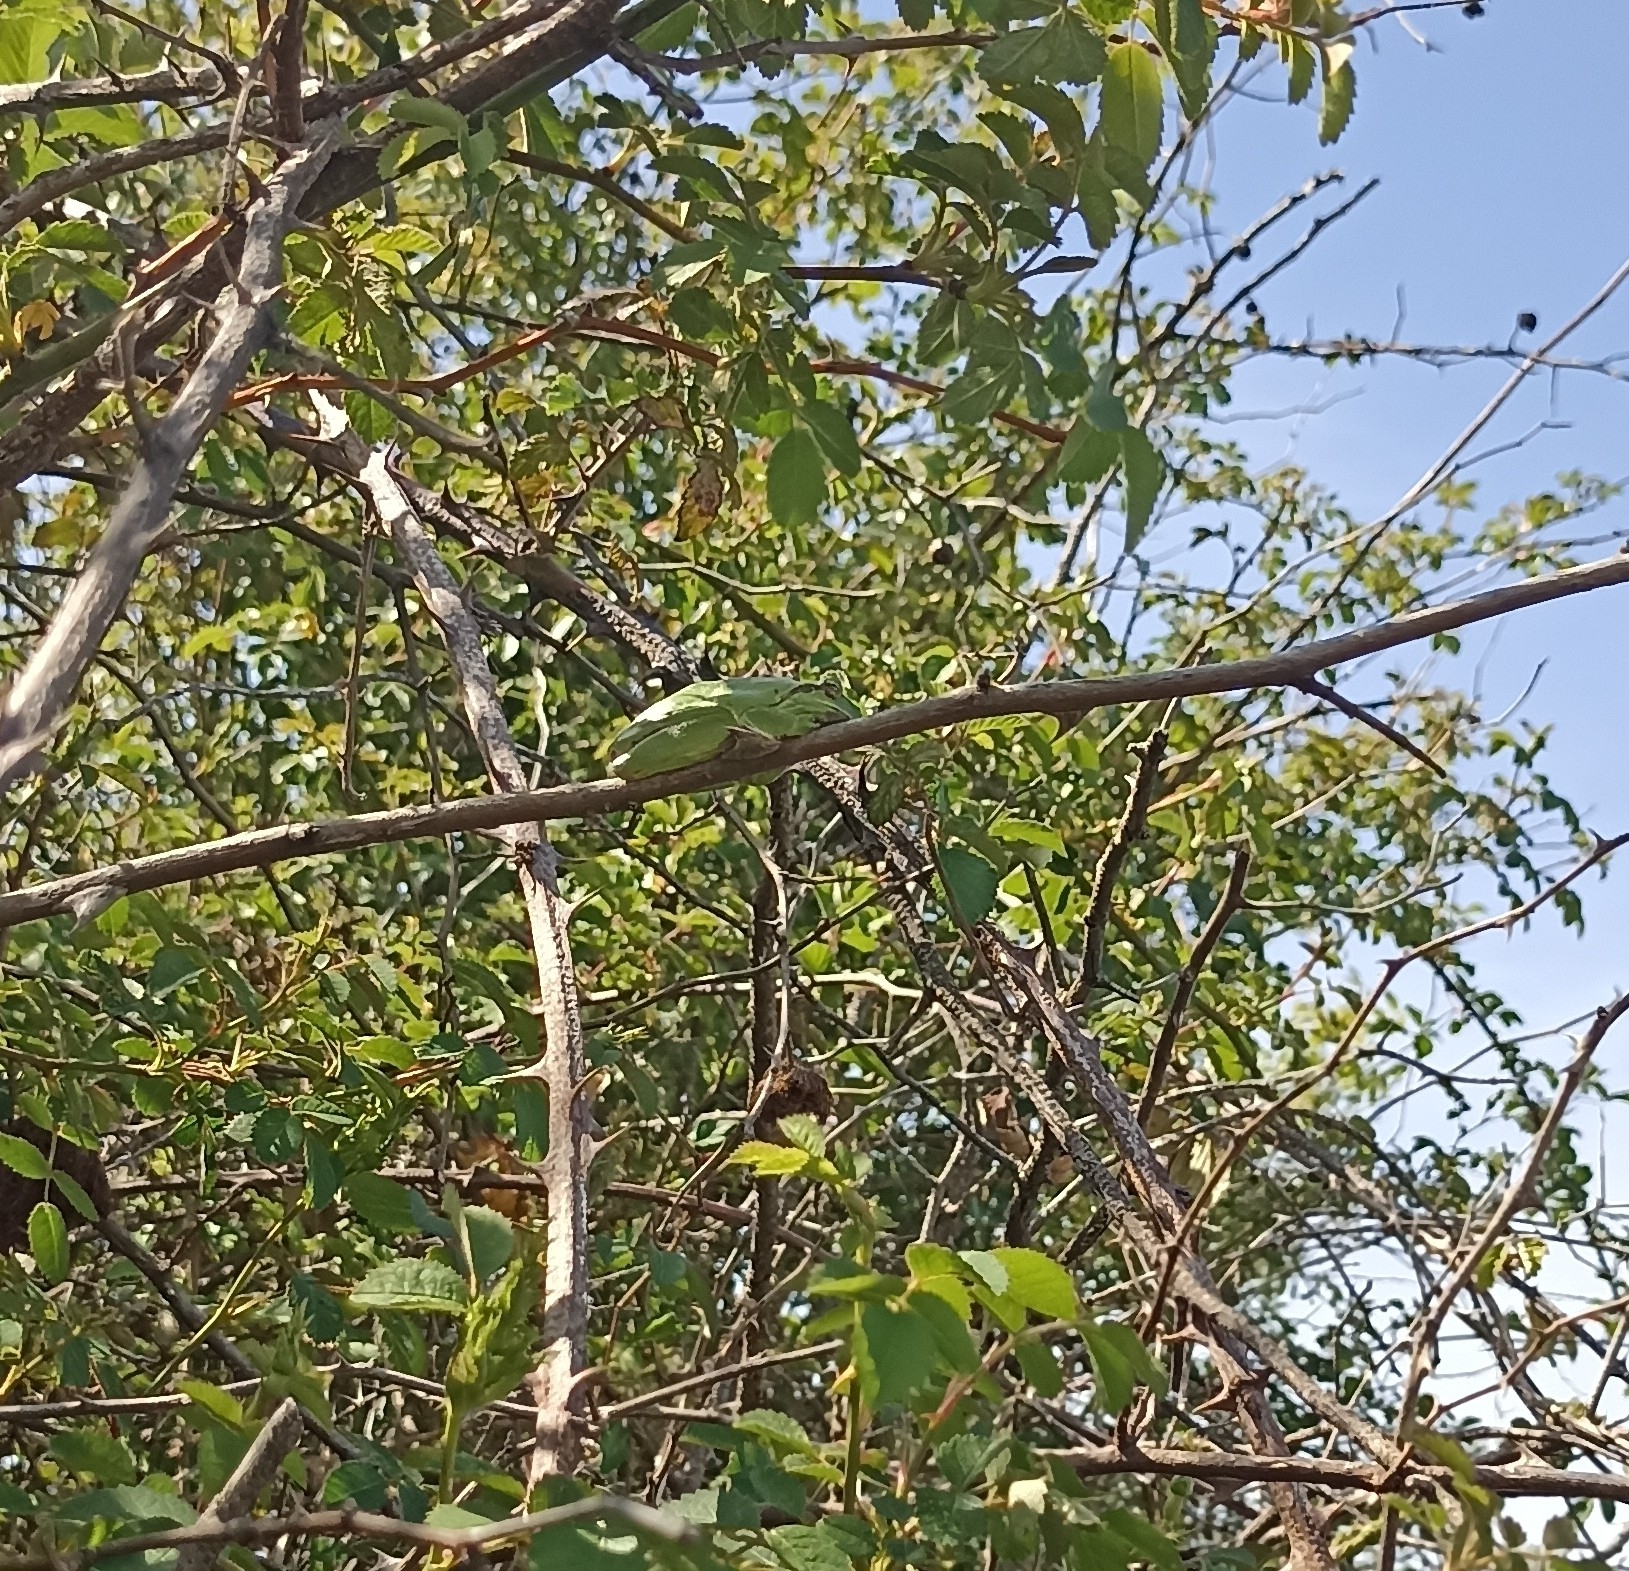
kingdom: Animalia
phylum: Chordata
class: Amphibia
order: Anura
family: Hylidae
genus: Hyla
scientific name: Hyla meridionalis
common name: Stripeless tree frog
